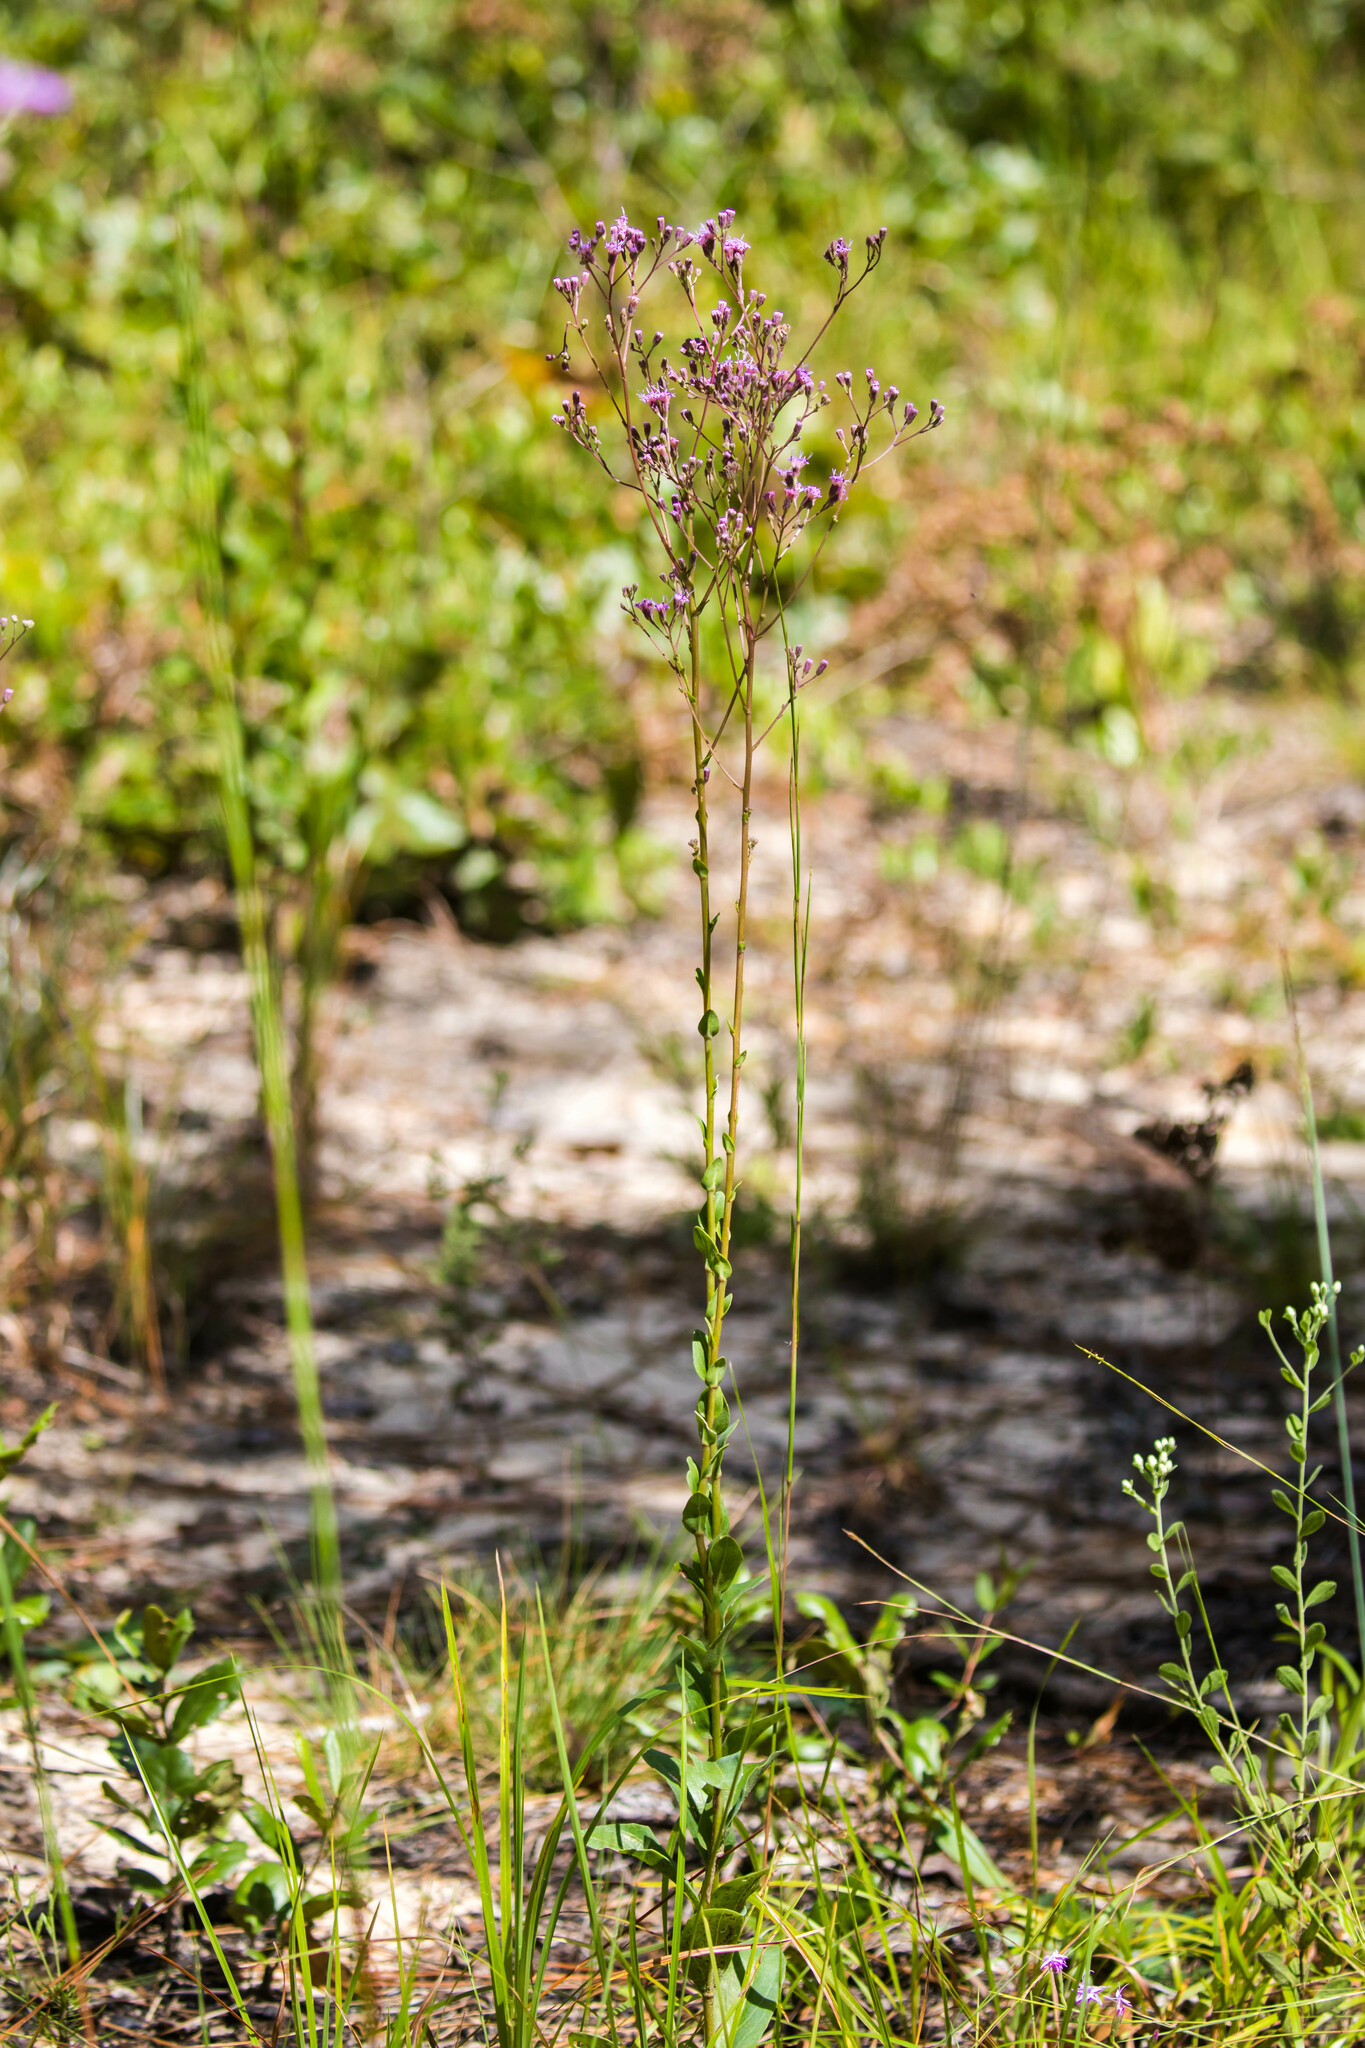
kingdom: Plantae
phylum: Tracheophyta
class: Magnoliopsida
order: Asterales
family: Asteraceae
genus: Carphephorus
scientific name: Carphephorus odoratissimus
